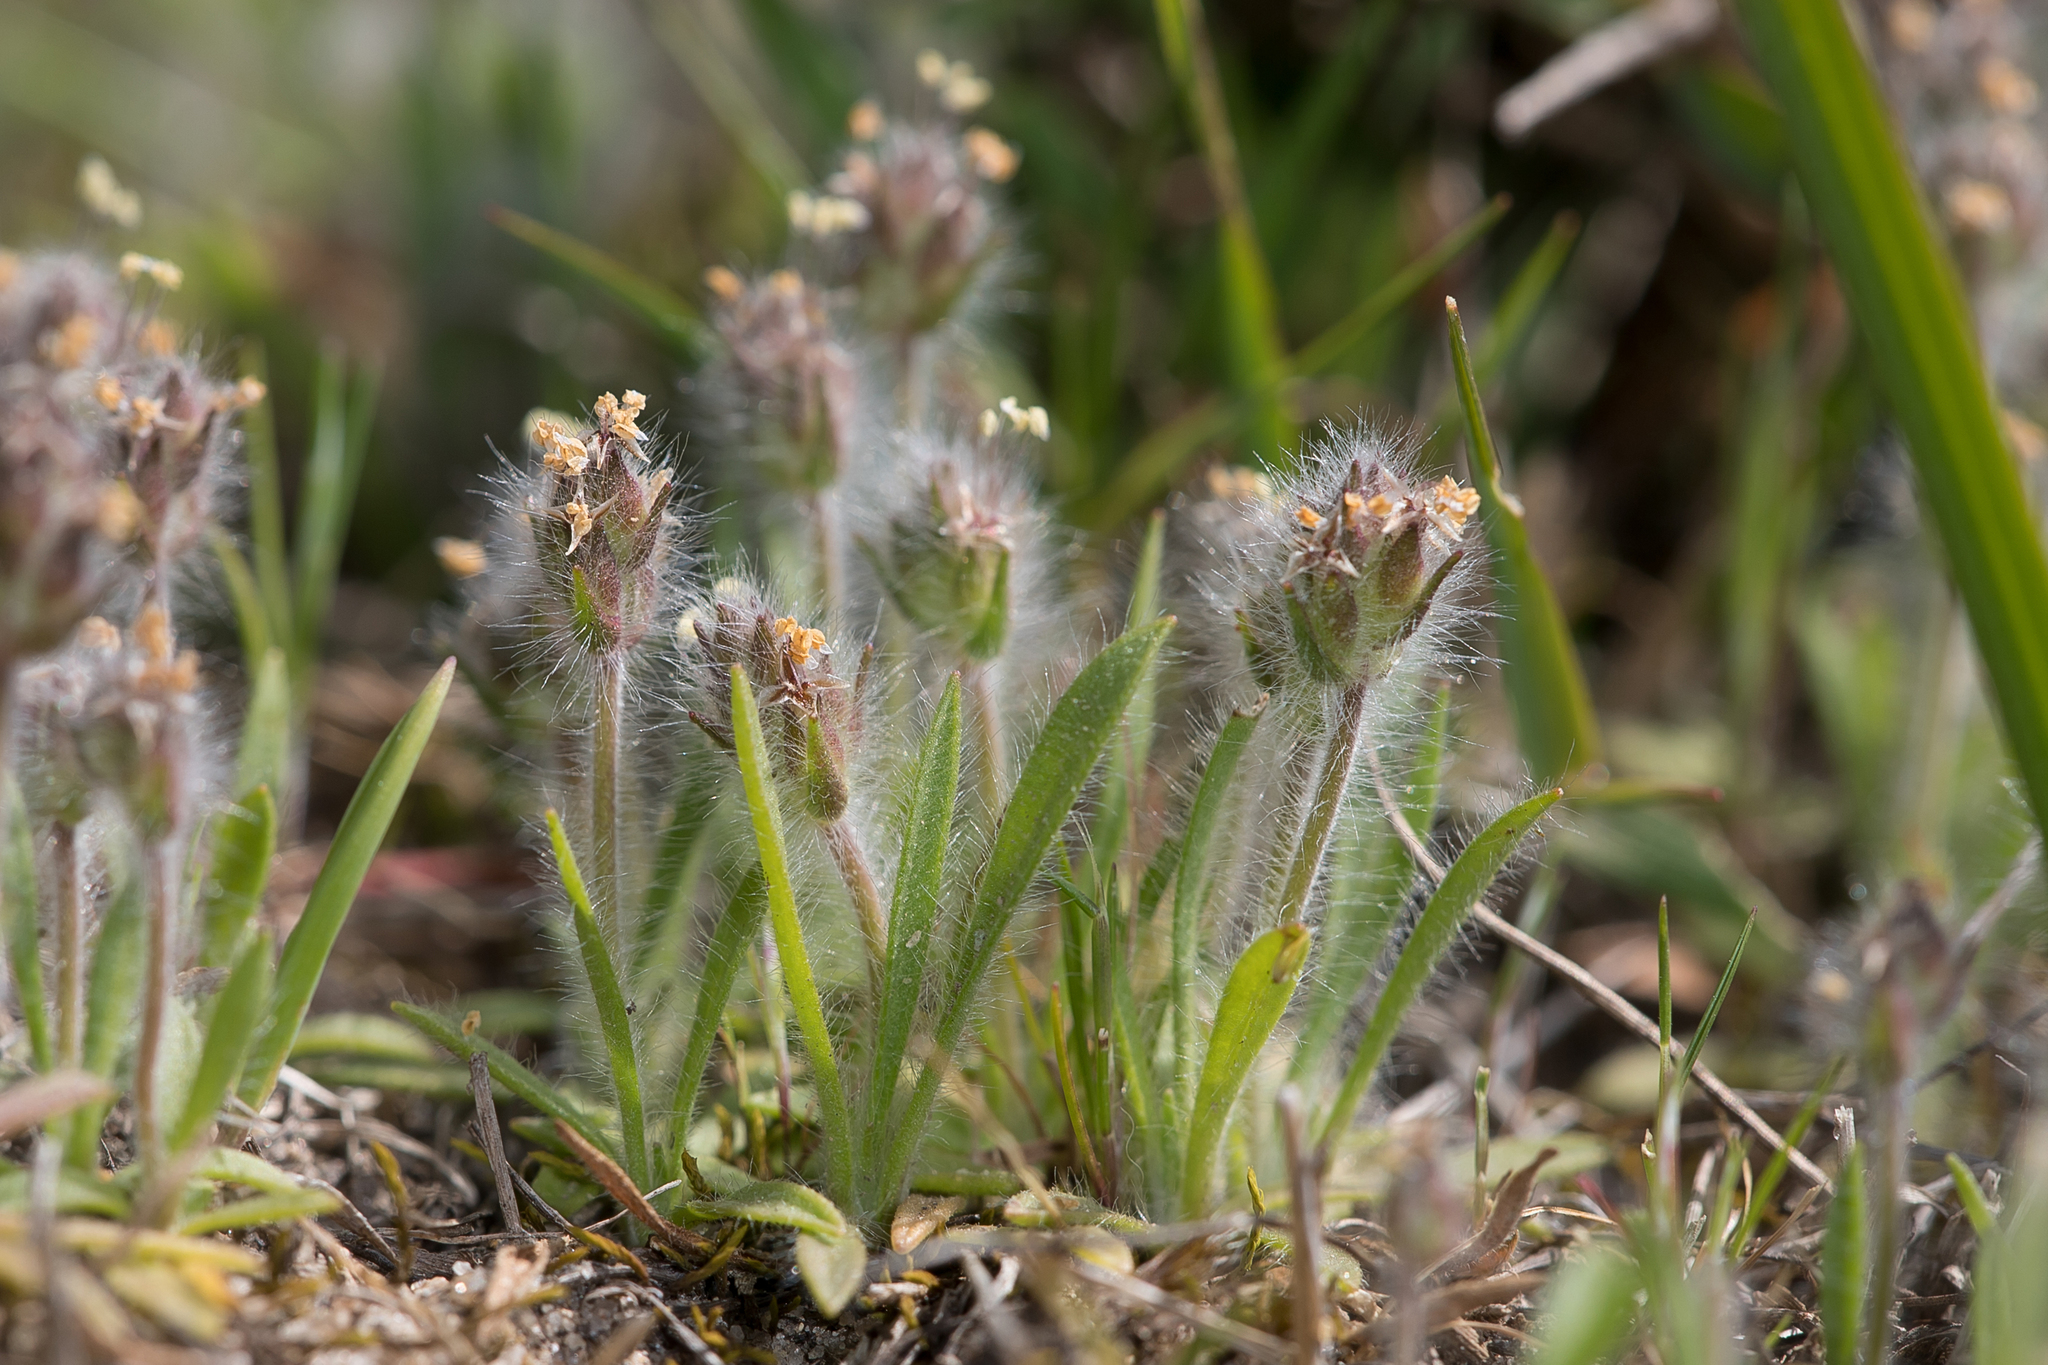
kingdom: Plantae
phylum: Tracheophyta
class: Magnoliopsida
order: Lamiales
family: Plantaginaceae
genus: Plantago
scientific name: Plantago bellardii
